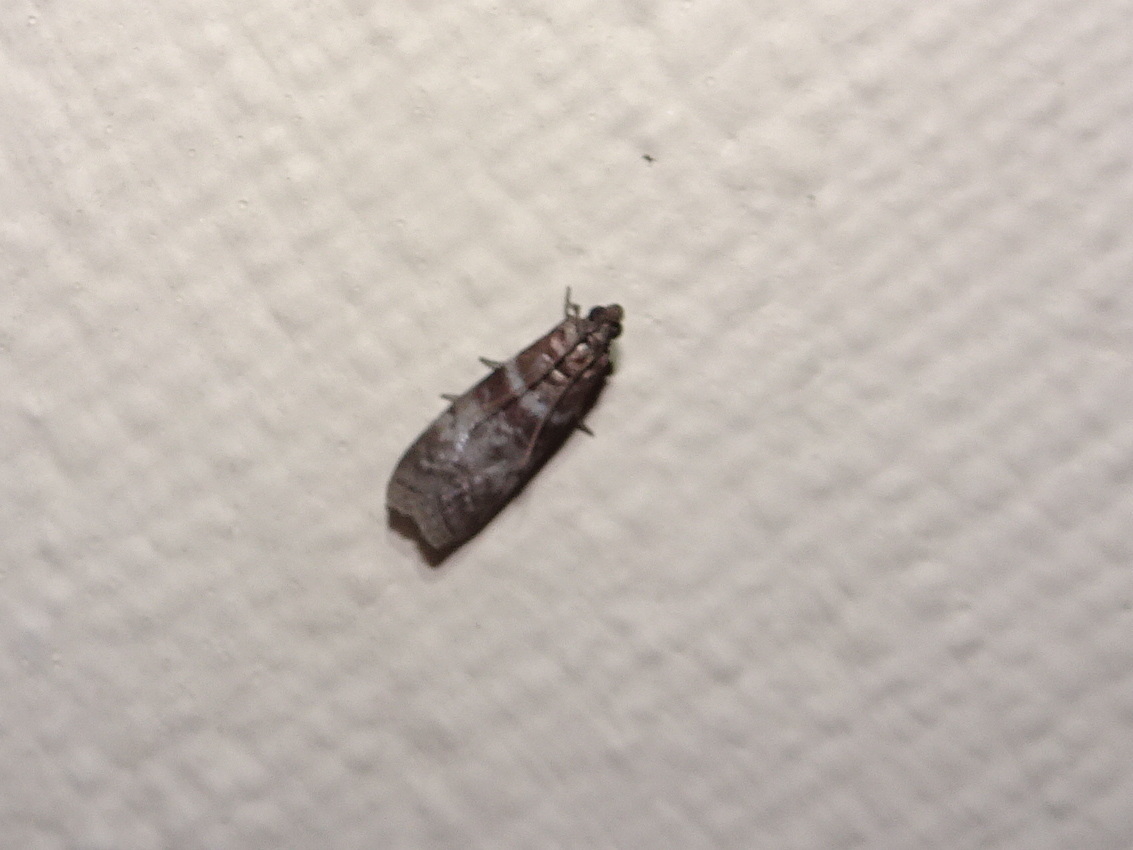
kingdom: Animalia
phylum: Arthropoda
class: Insecta
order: Lepidoptera
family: Pyralidae
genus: Sciota
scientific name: Sciota uvinella
